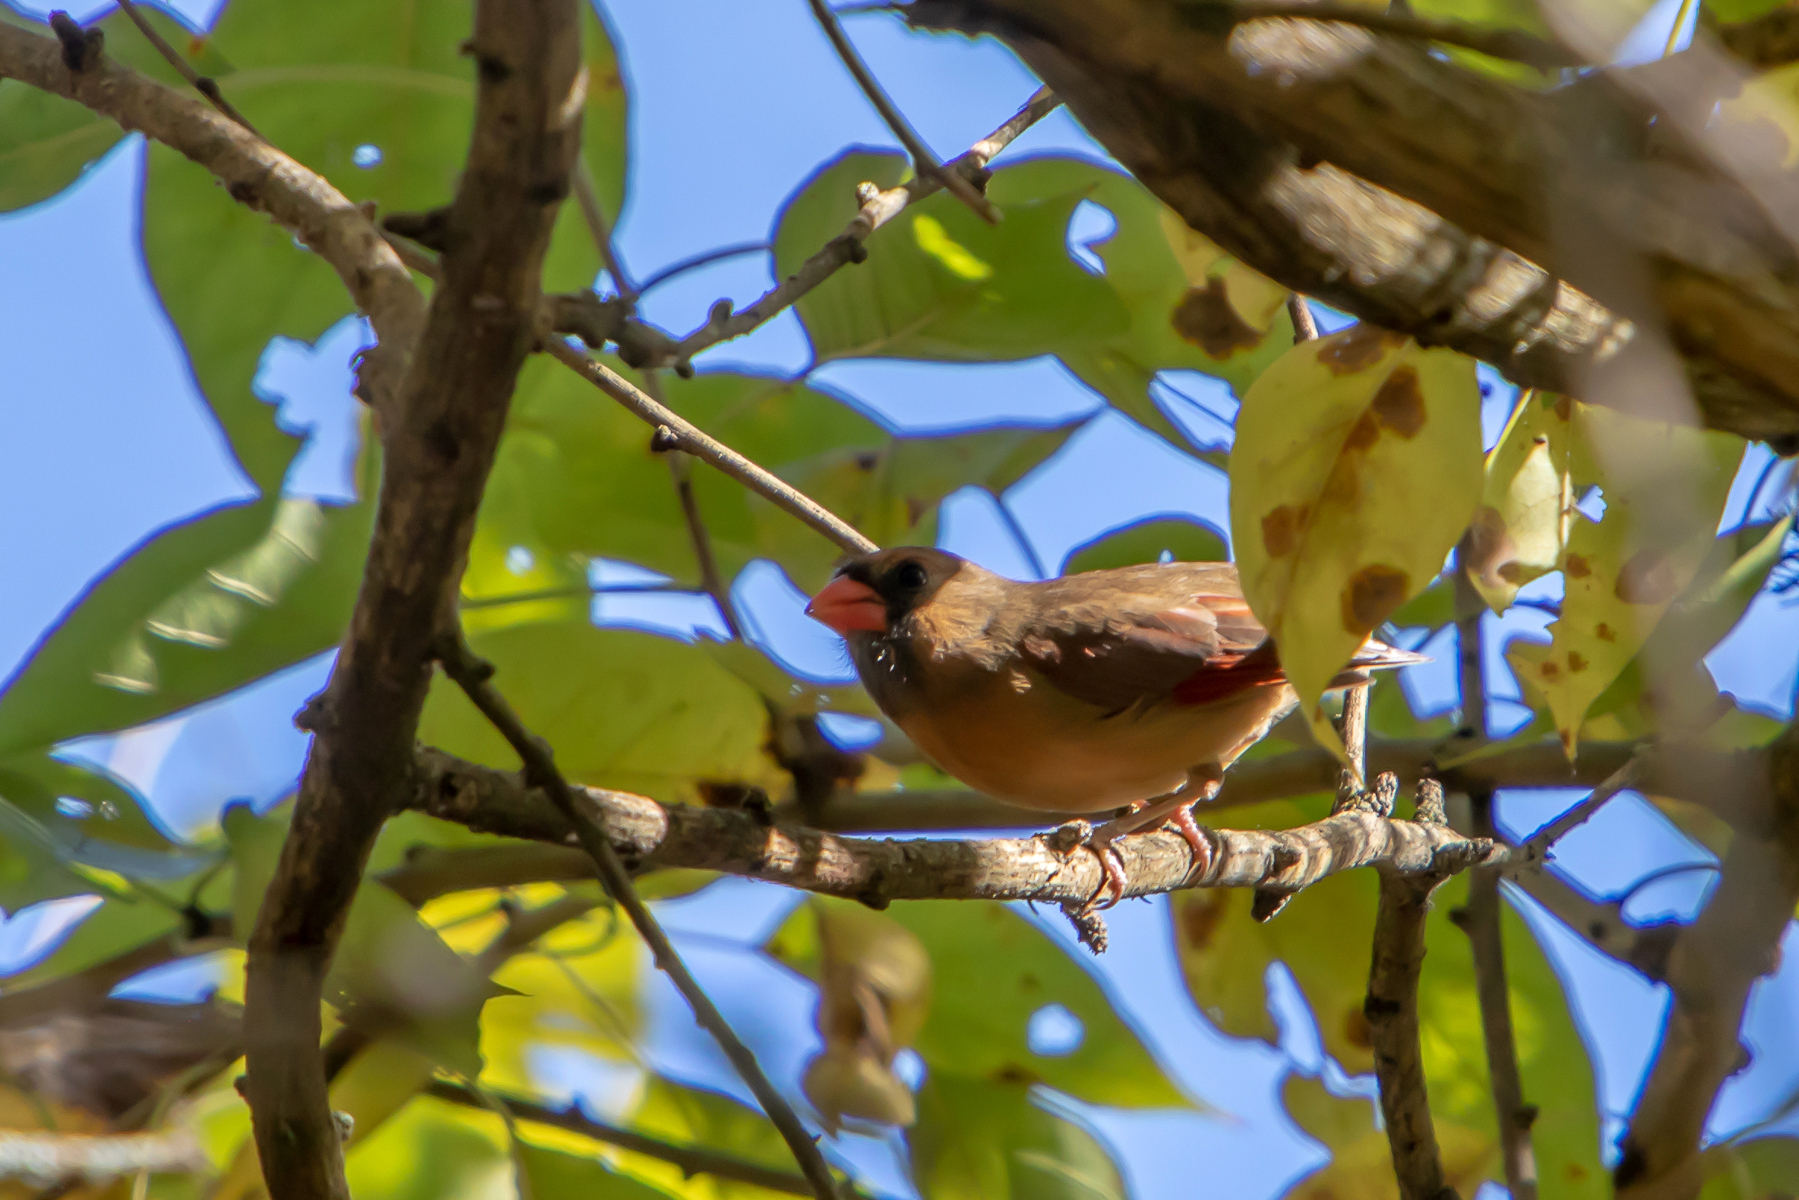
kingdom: Animalia
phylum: Chordata
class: Aves
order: Passeriformes
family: Cardinalidae
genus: Cardinalis
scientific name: Cardinalis cardinalis
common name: Northern cardinal
